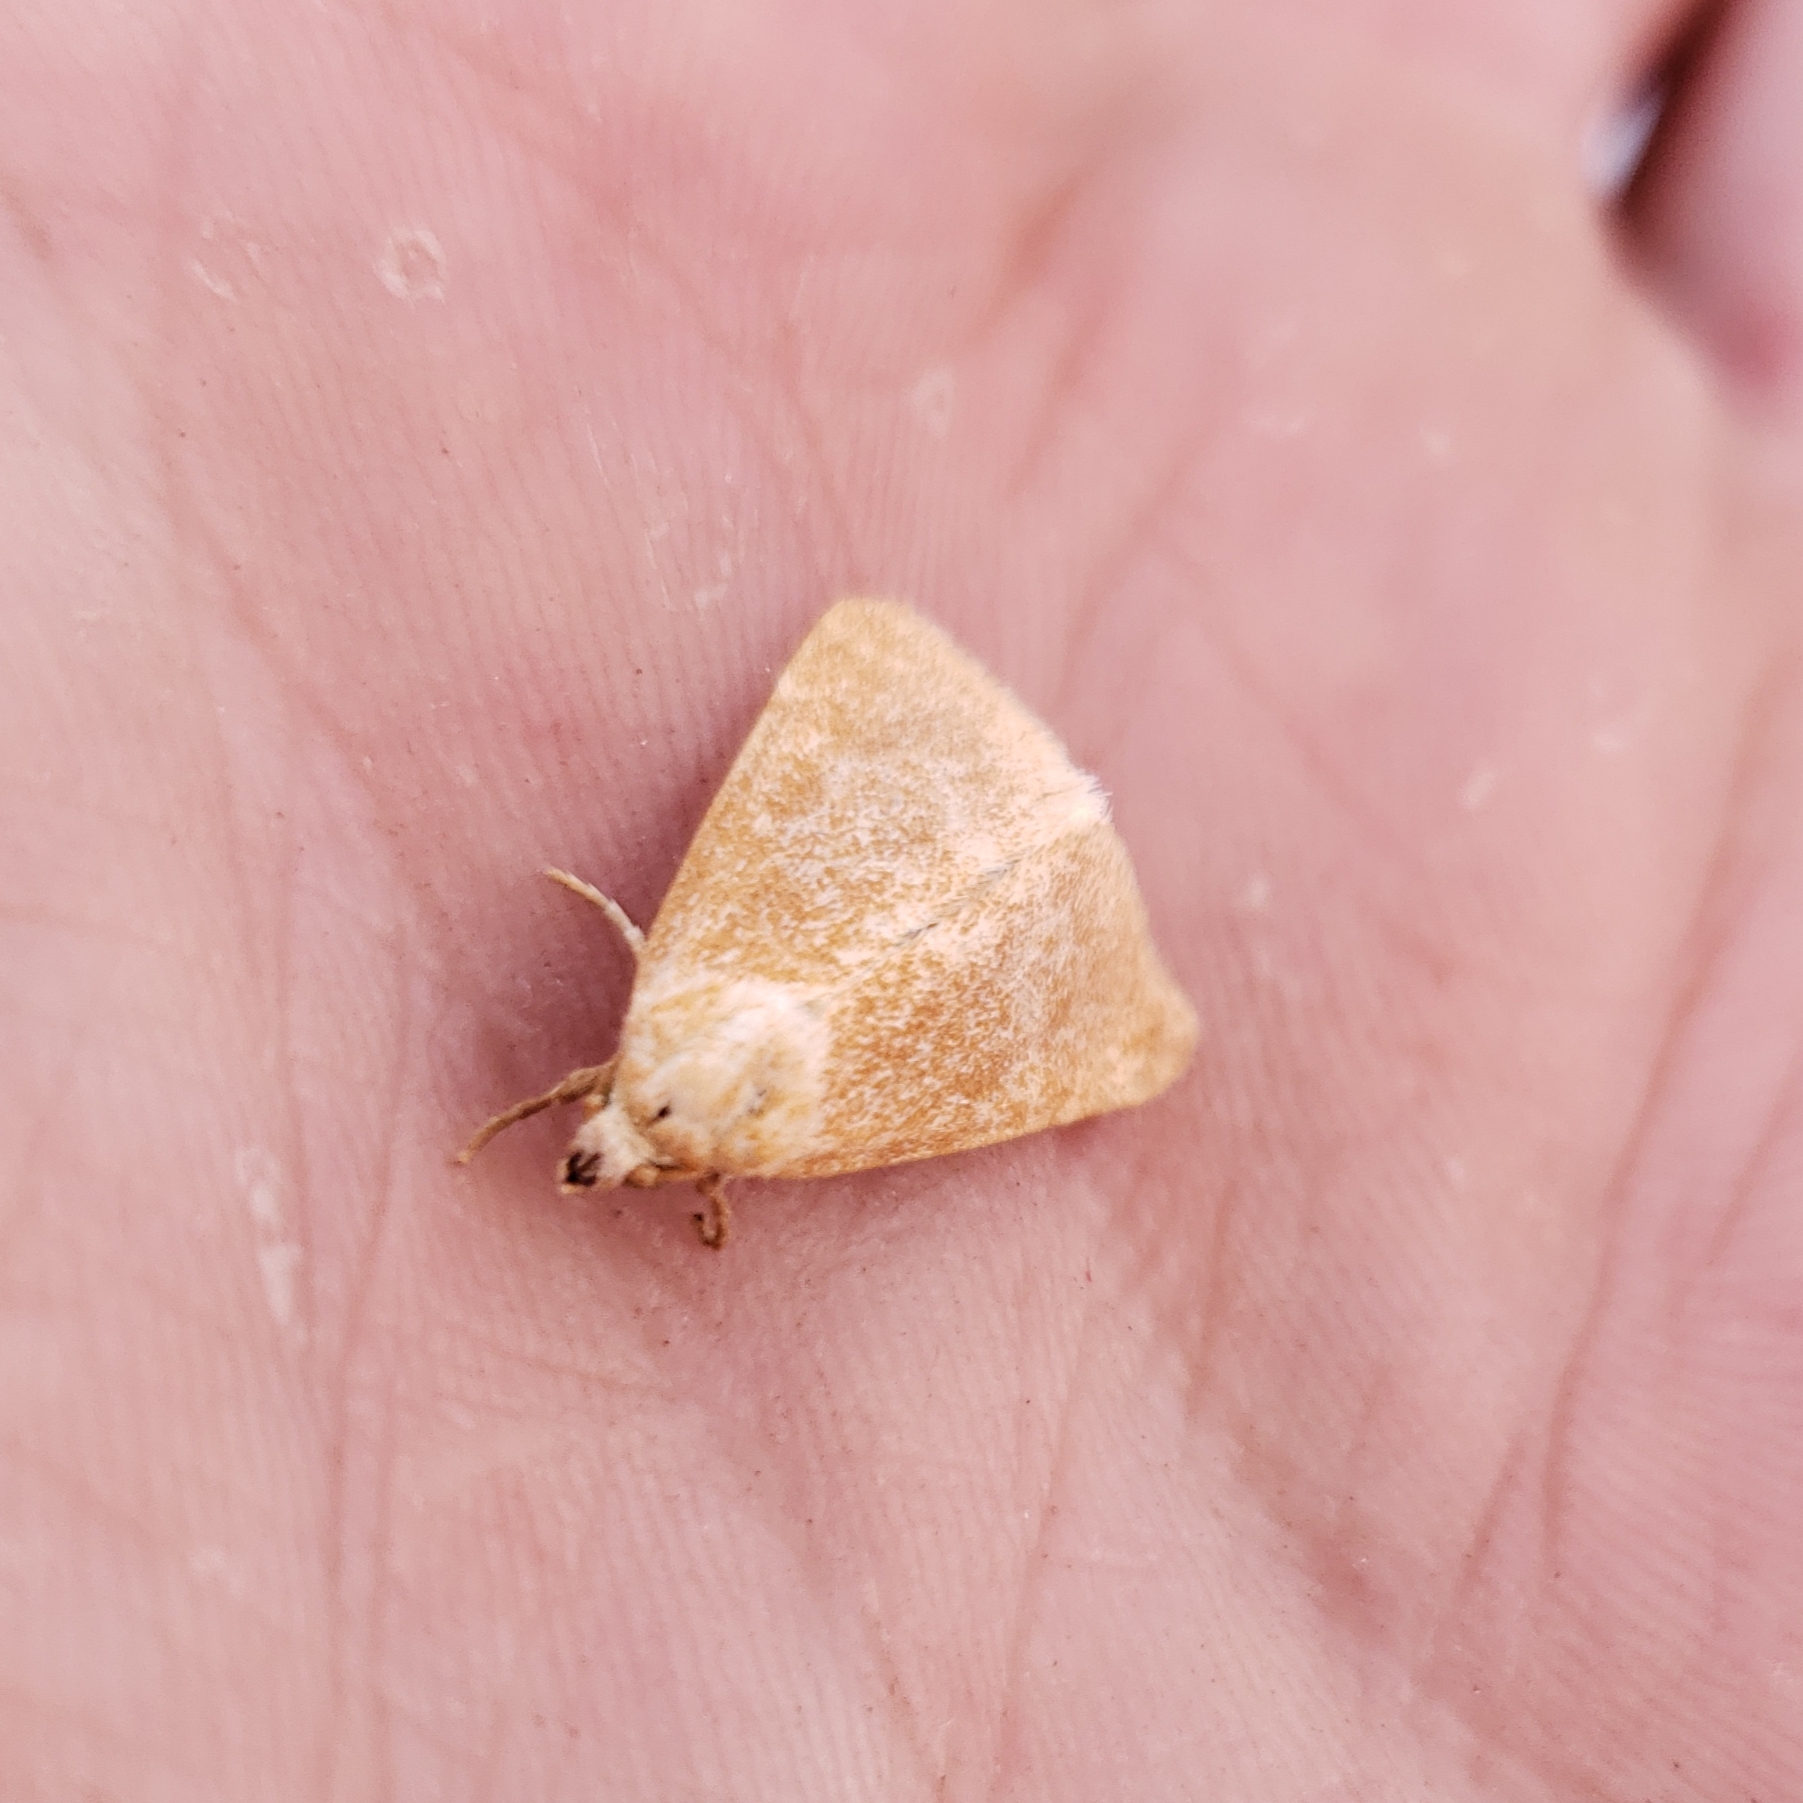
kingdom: Animalia
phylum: Arthropoda
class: Insecta
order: Lepidoptera
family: Noctuidae
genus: Azenia
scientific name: Azenia templetonae
